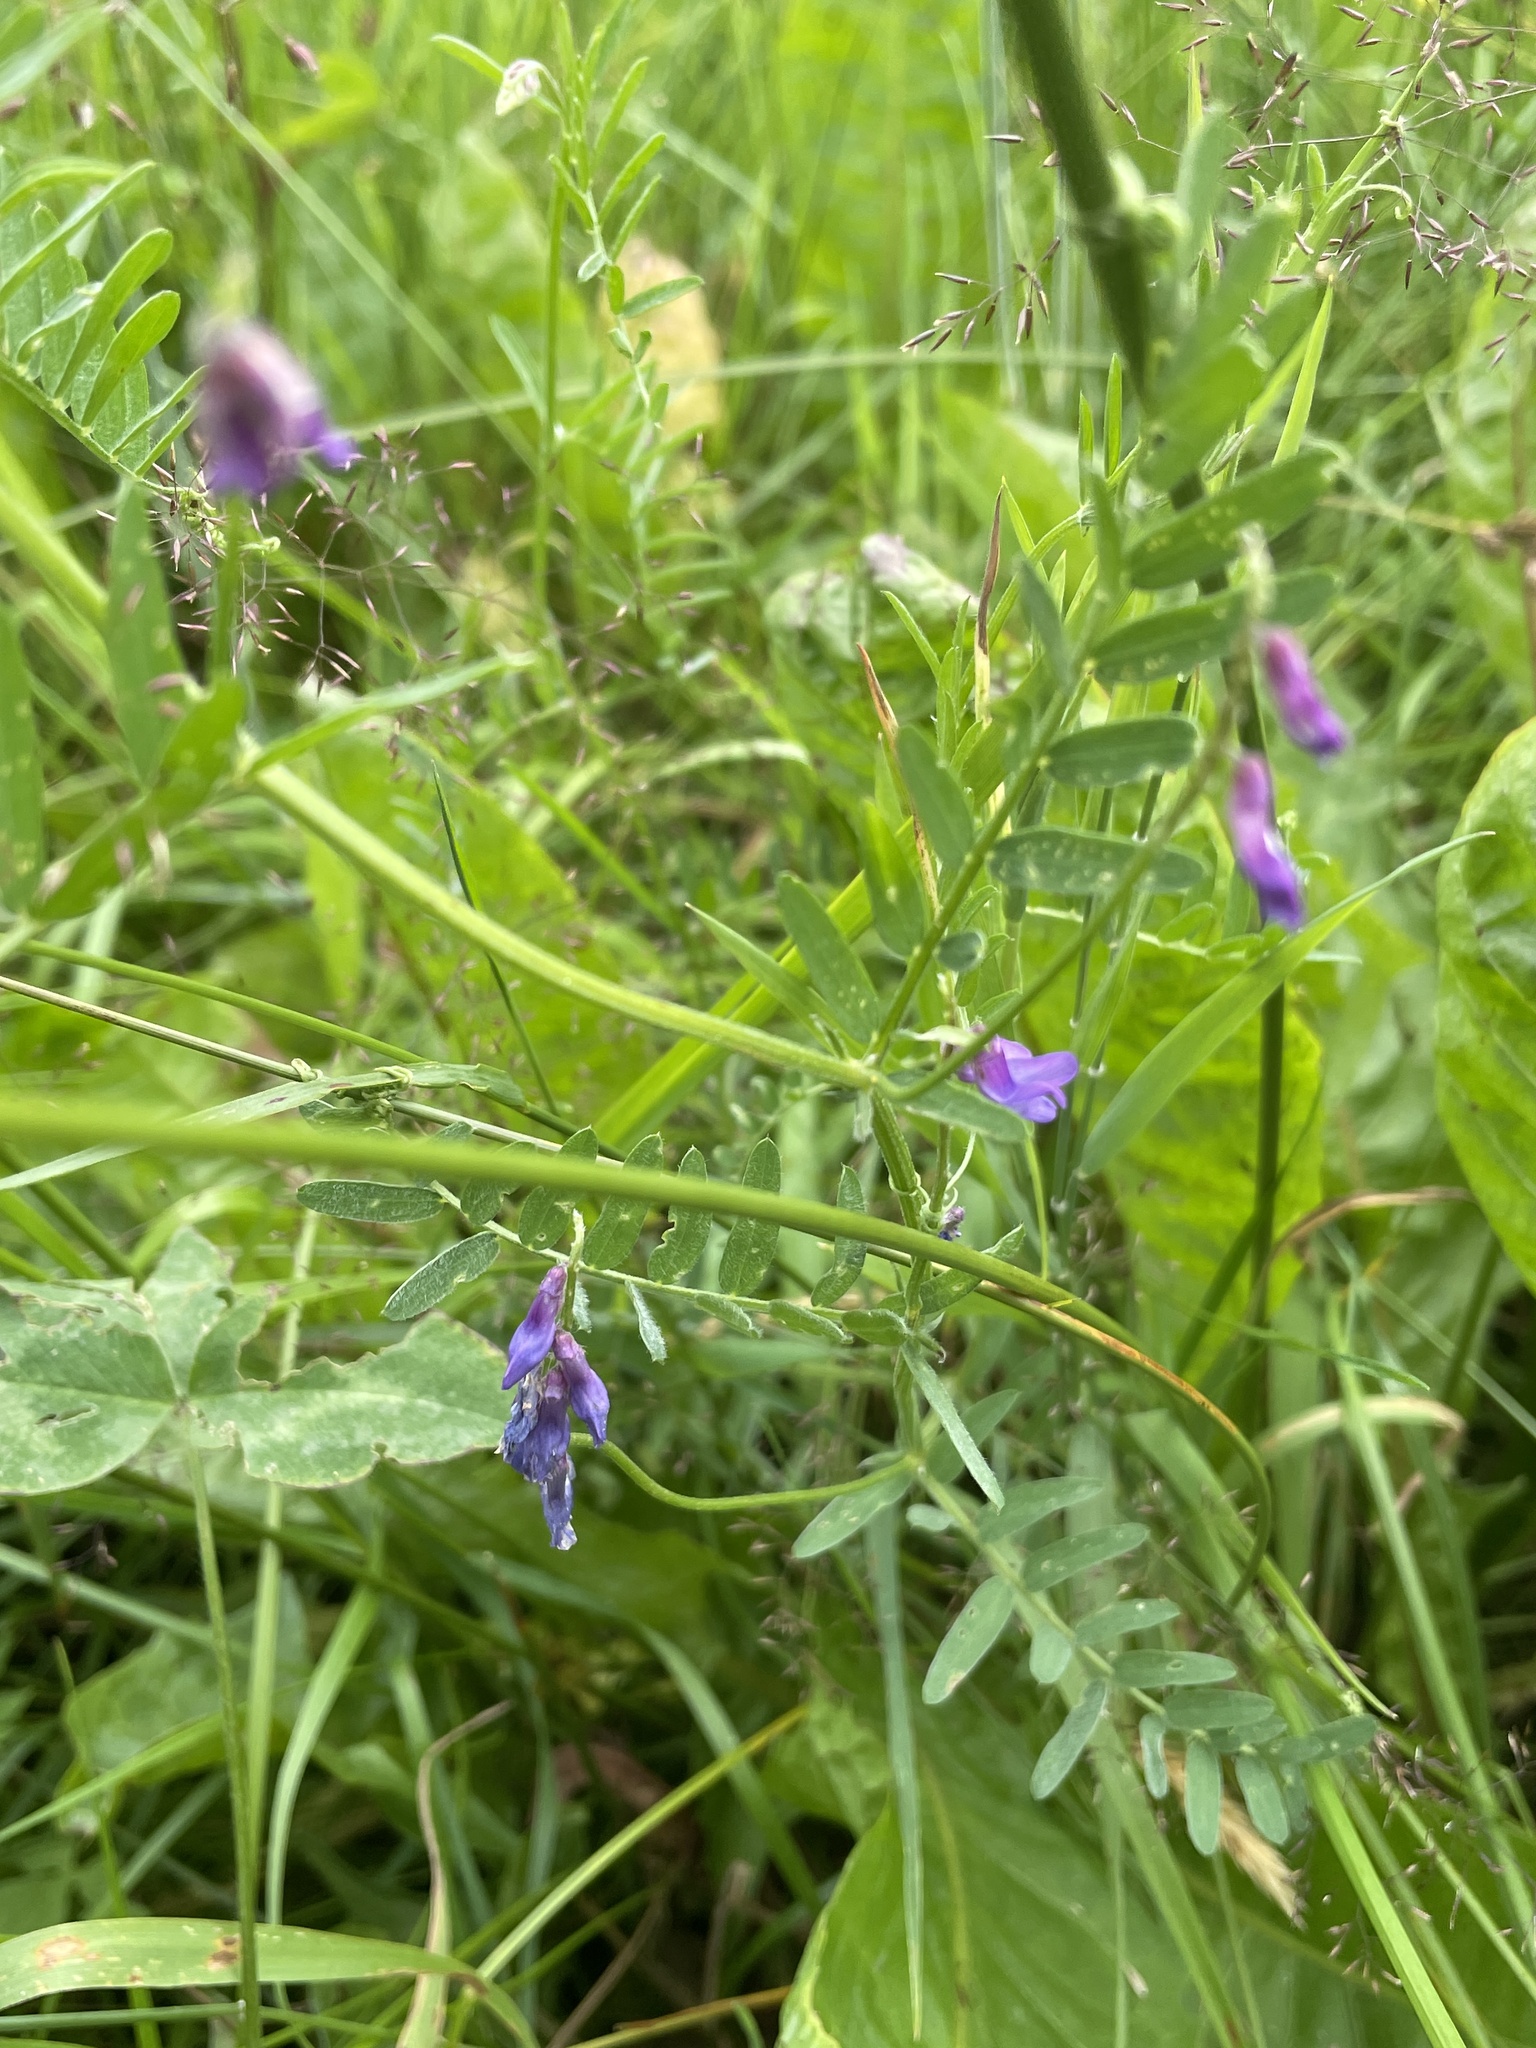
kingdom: Plantae
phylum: Tracheophyta
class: Magnoliopsida
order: Fabales
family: Fabaceae
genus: Vicia
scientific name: Vicia cracca
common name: Bird vetch
